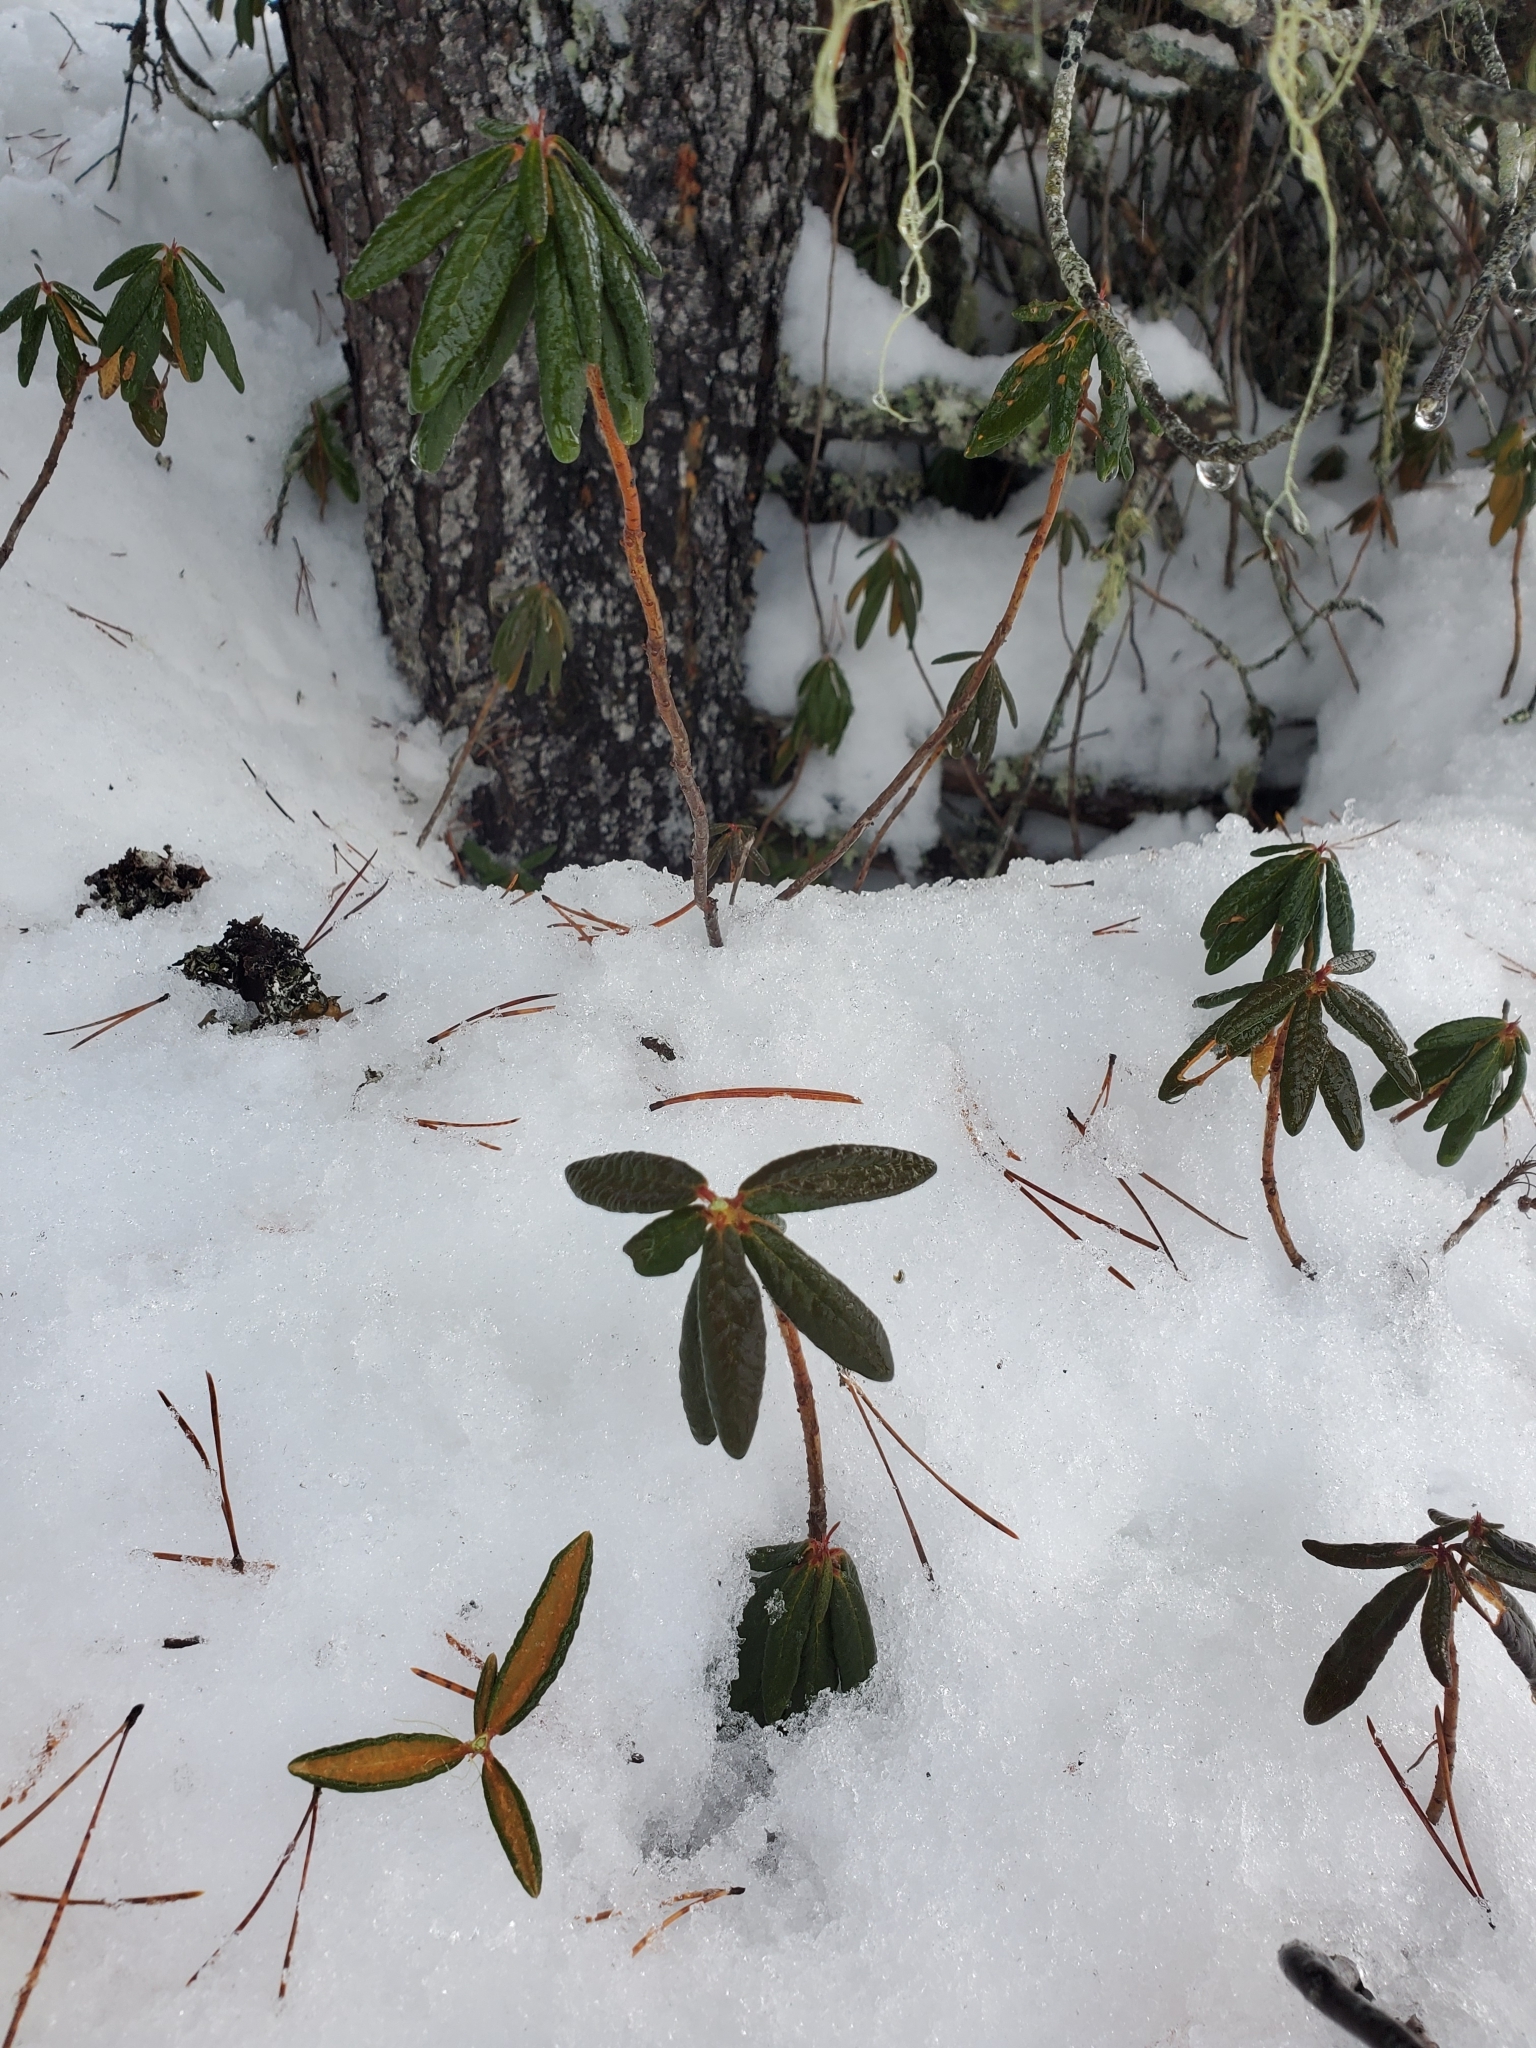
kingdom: Plantae
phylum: Tracheophyta
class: Magnoliopsida
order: Ericales
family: Ericaceae
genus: Rhododendron
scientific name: Rhododendron groenlandicum
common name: Bog labrador tea
